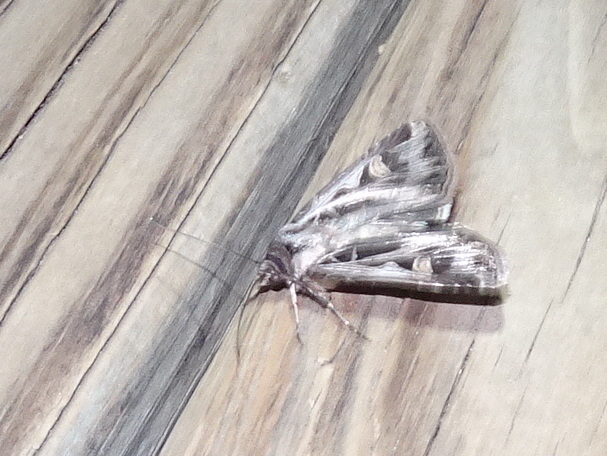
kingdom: Animalia
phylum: Arthropoda
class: Insecta
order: Lepidoptera
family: Noctuidae
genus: Feltia
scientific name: Feltia jaculifera
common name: Dingy cutworm moth
